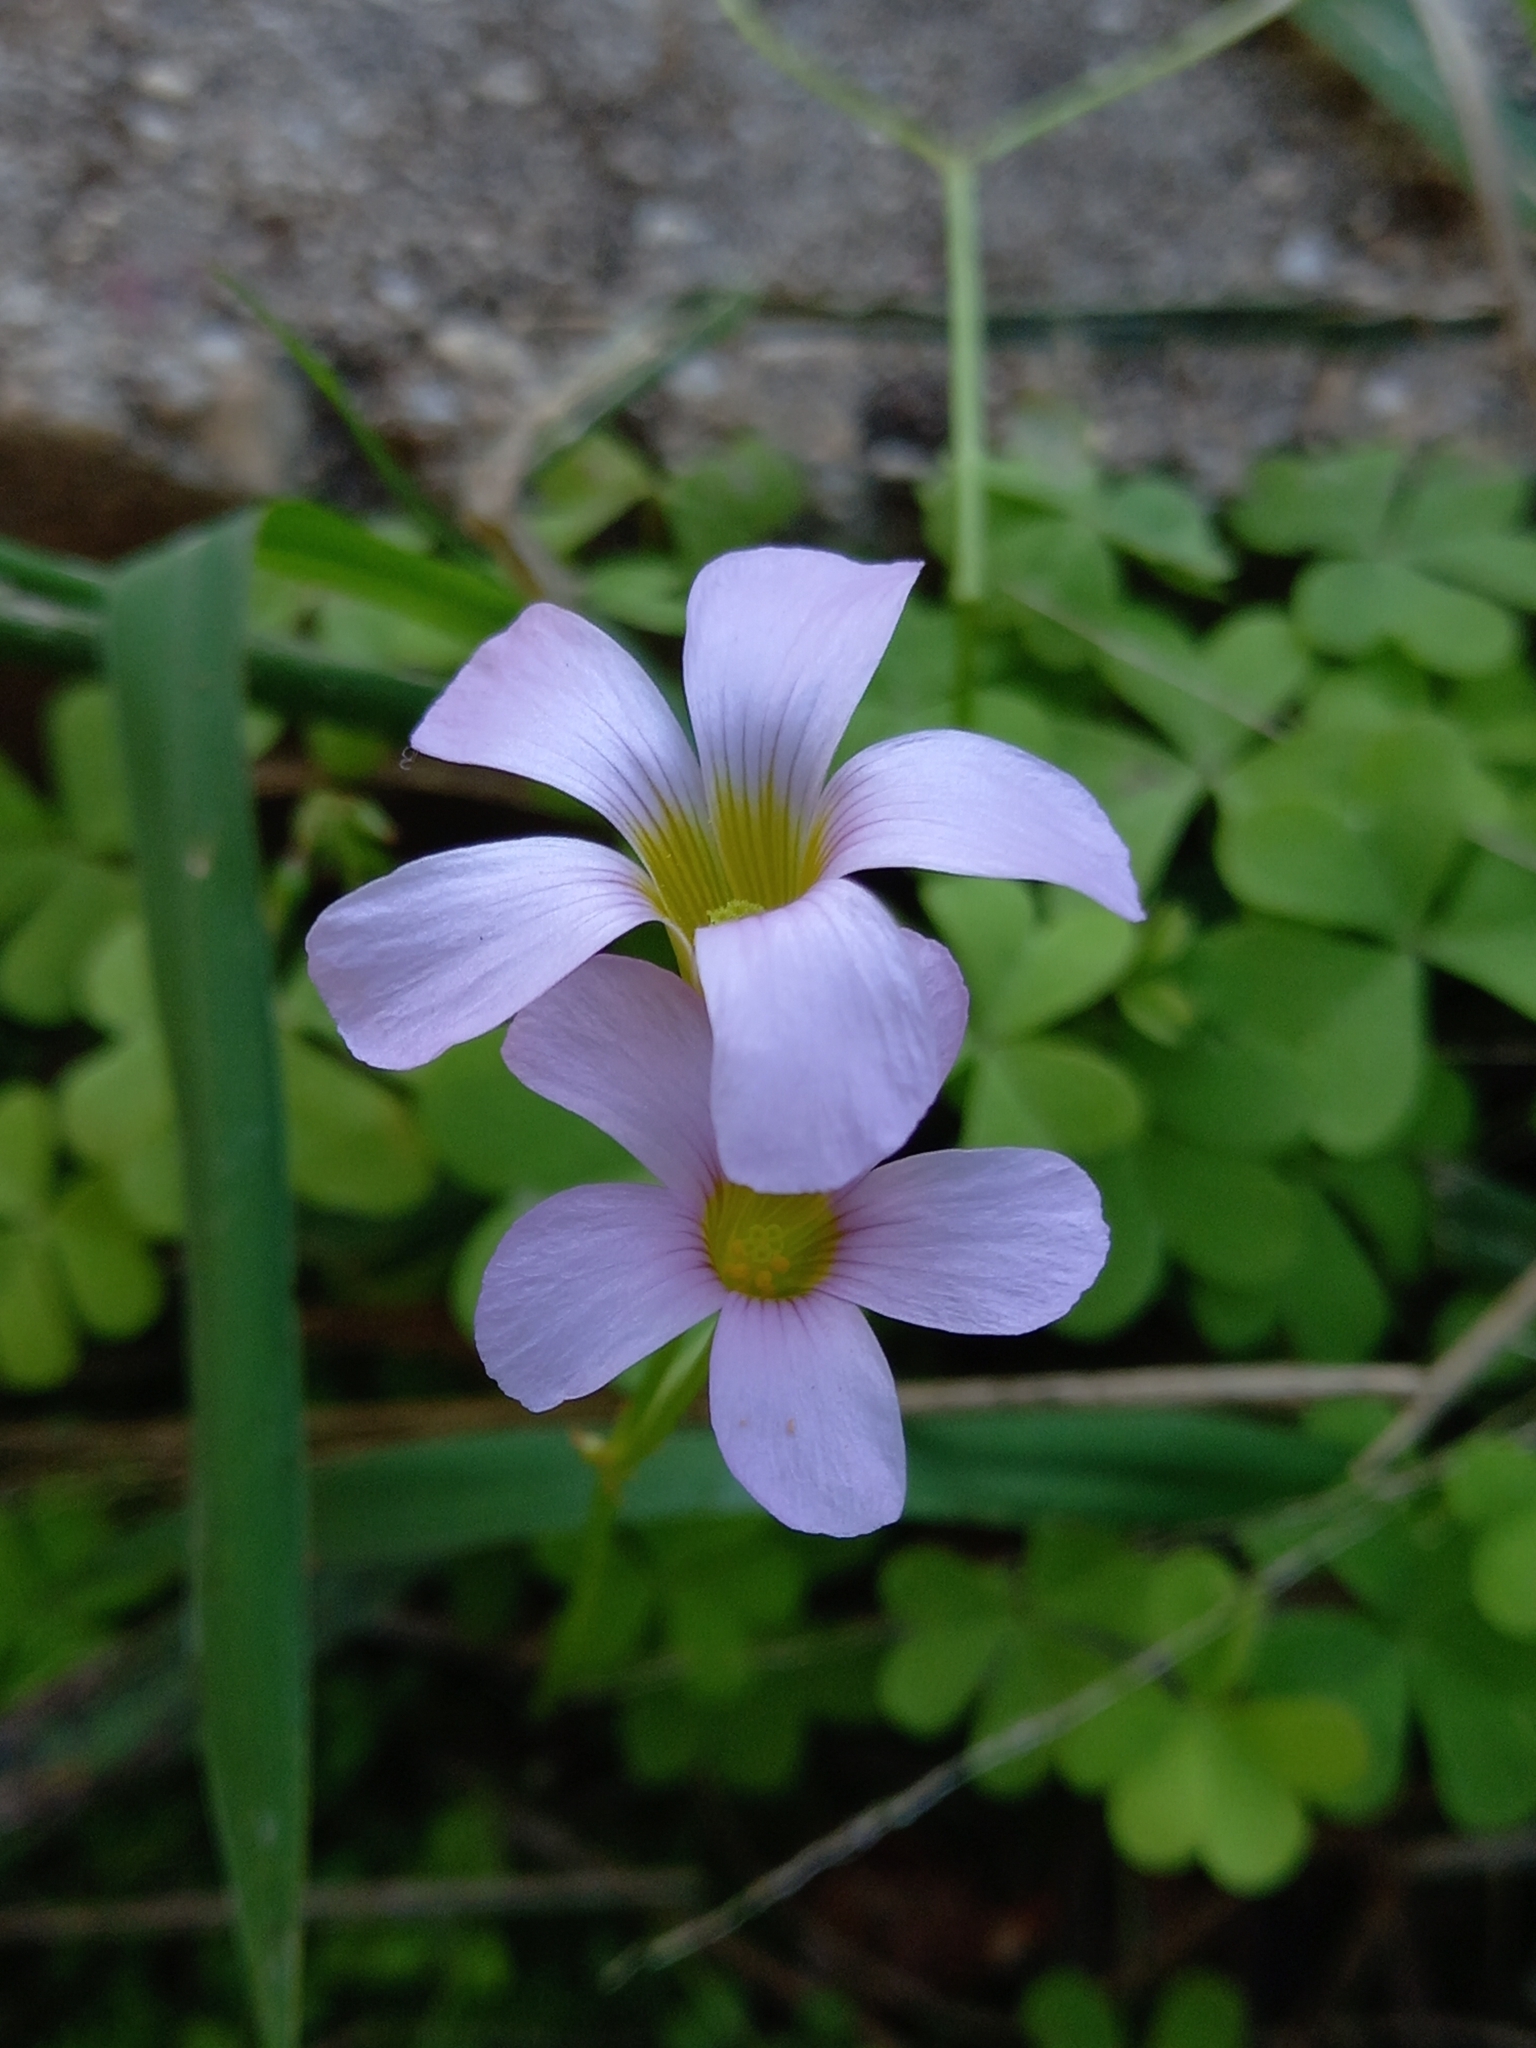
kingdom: Plantae
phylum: Tracheophyta
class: Magnoliopsida
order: Oxalidales
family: Oxalidaceae
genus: Oxalis
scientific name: Oxalis caprina
